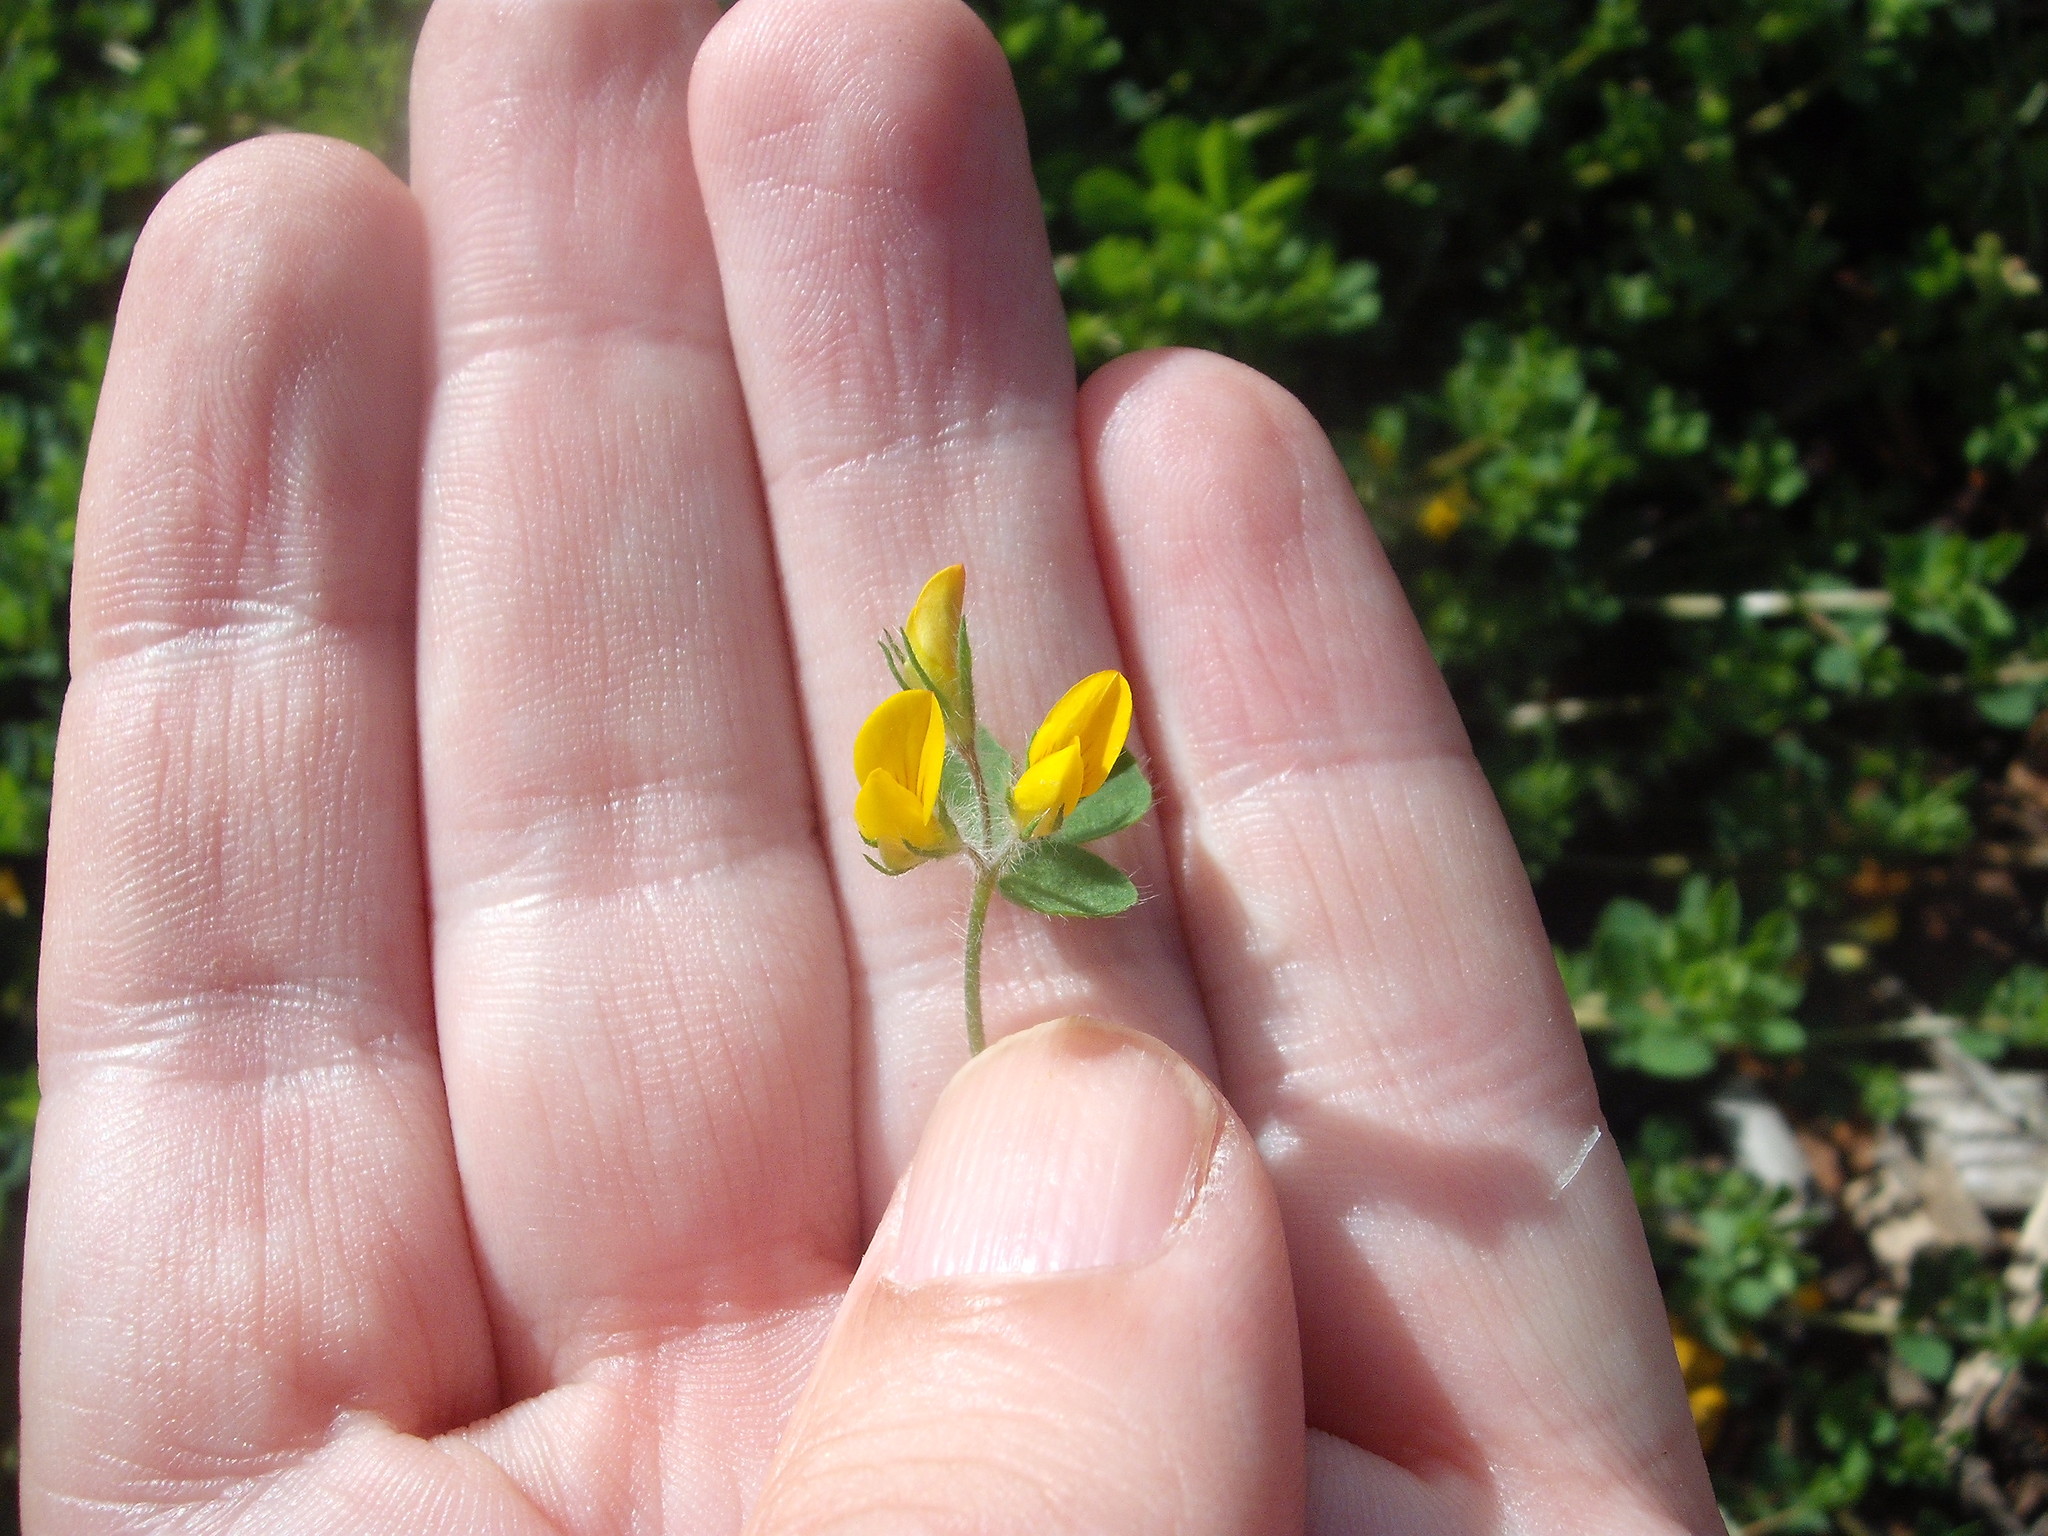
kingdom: Plantae
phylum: Tracheophyta
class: Magnoliopsida
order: Fabales
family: Fabaceae
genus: Lotus
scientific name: Lotus subbiflorus
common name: Hairy bird's-foot trefoil
